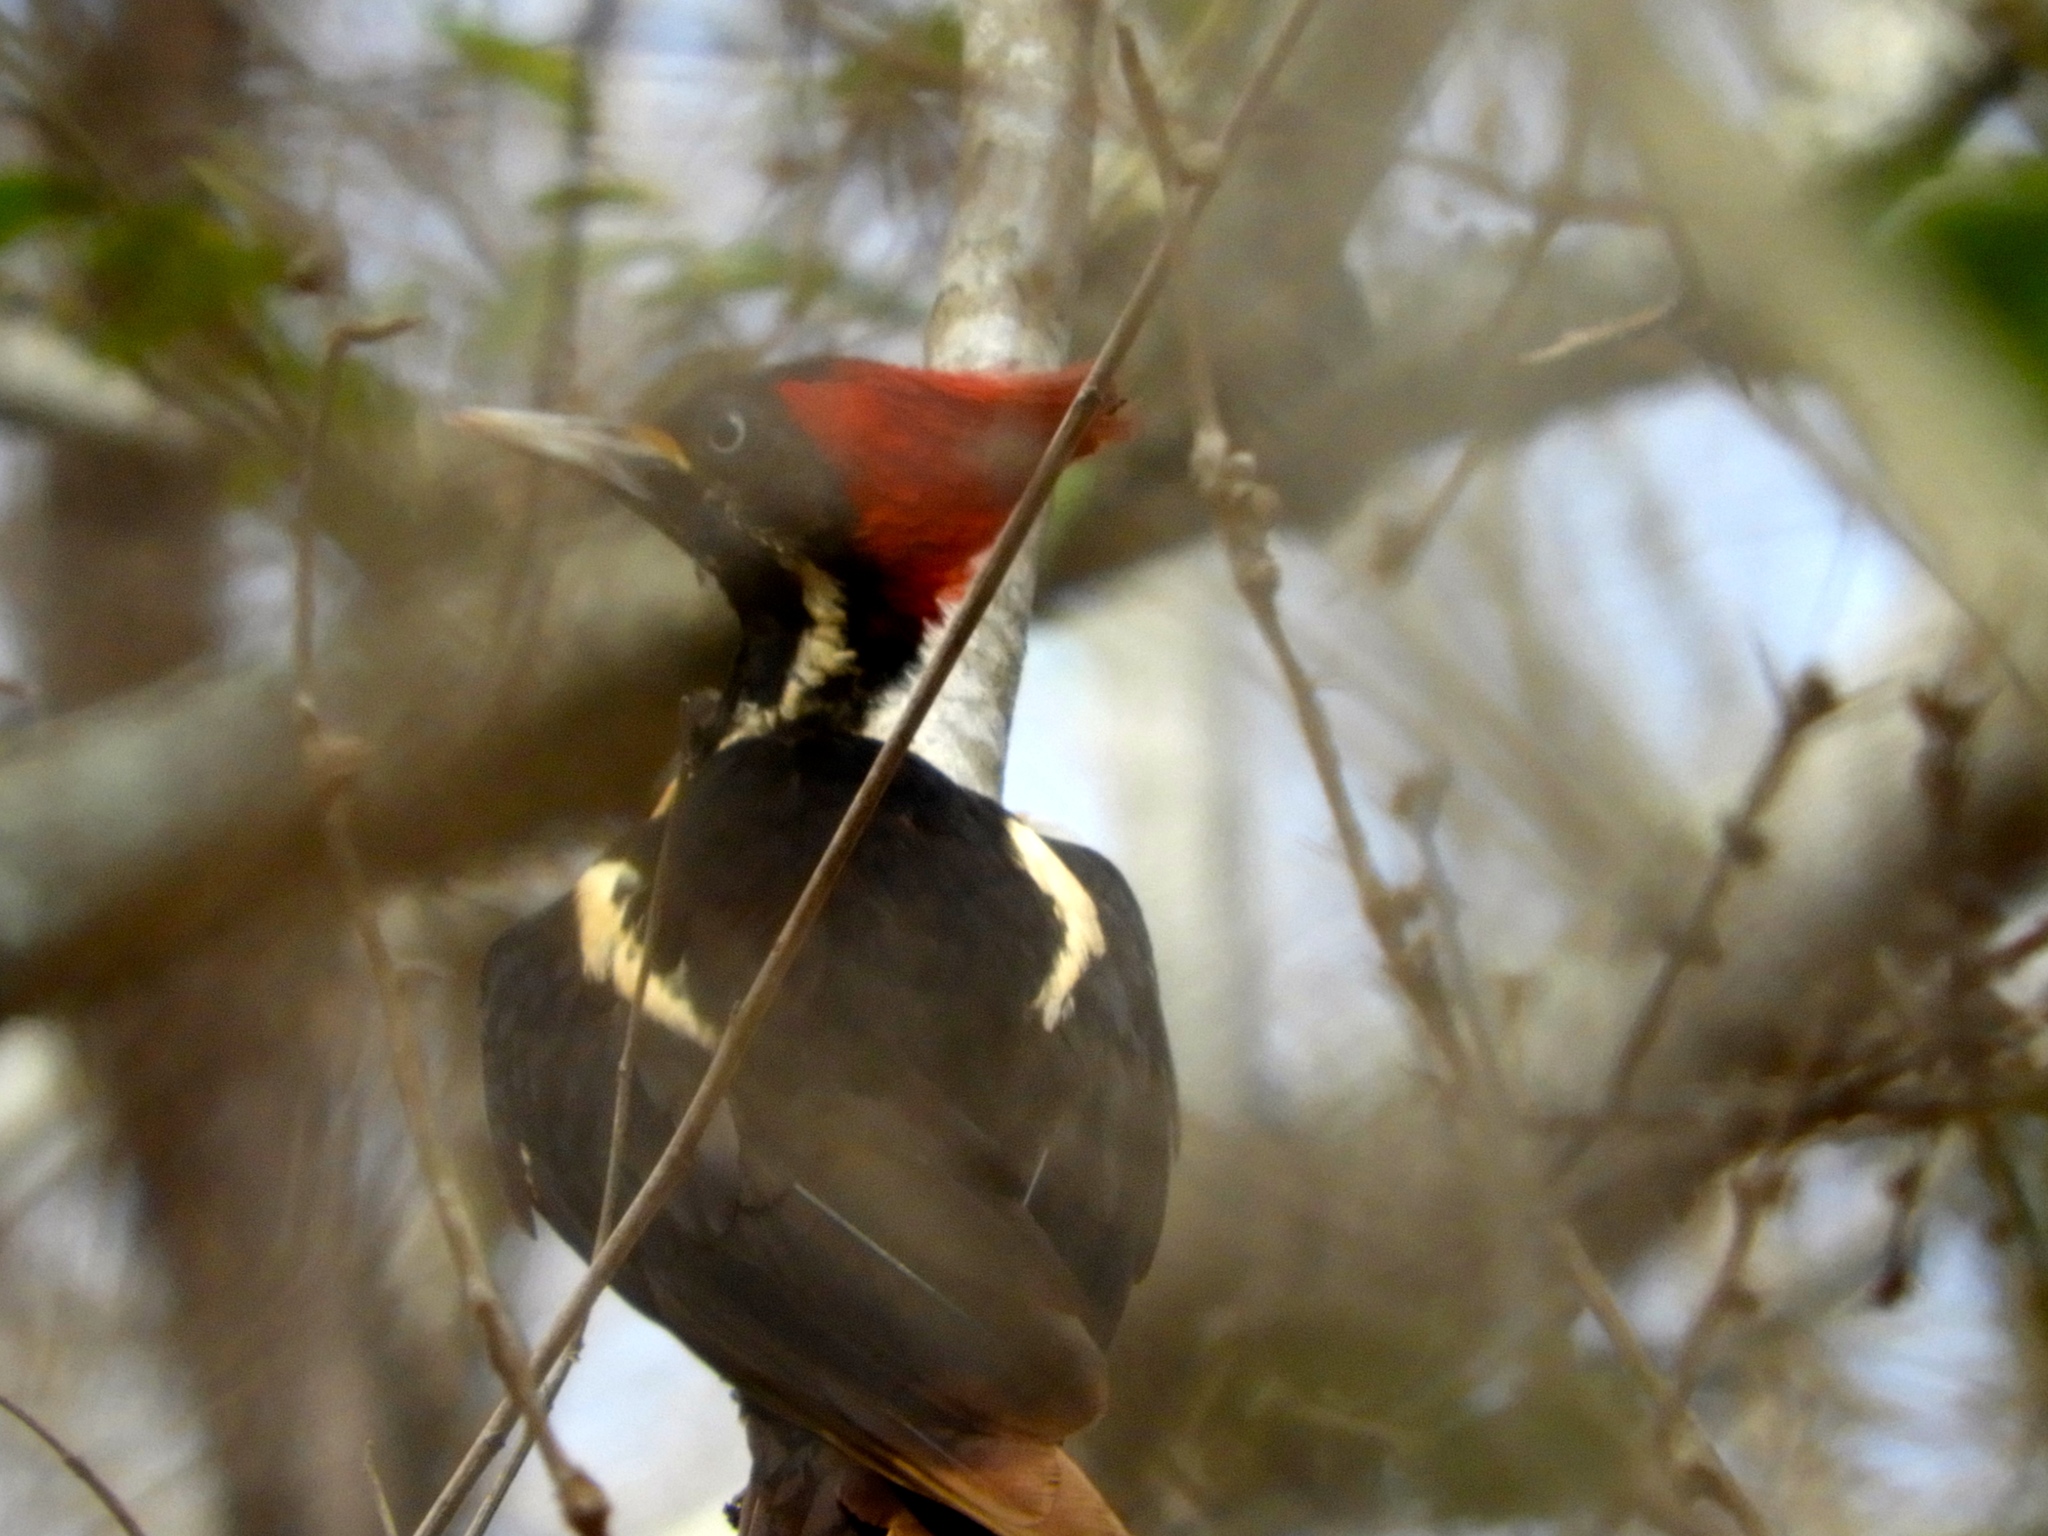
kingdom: Animalia
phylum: Chordata
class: Aves
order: Piciformes
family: Picidae
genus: Dryocopus
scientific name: Dryocopus lineatus
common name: Lineated woodpecker
